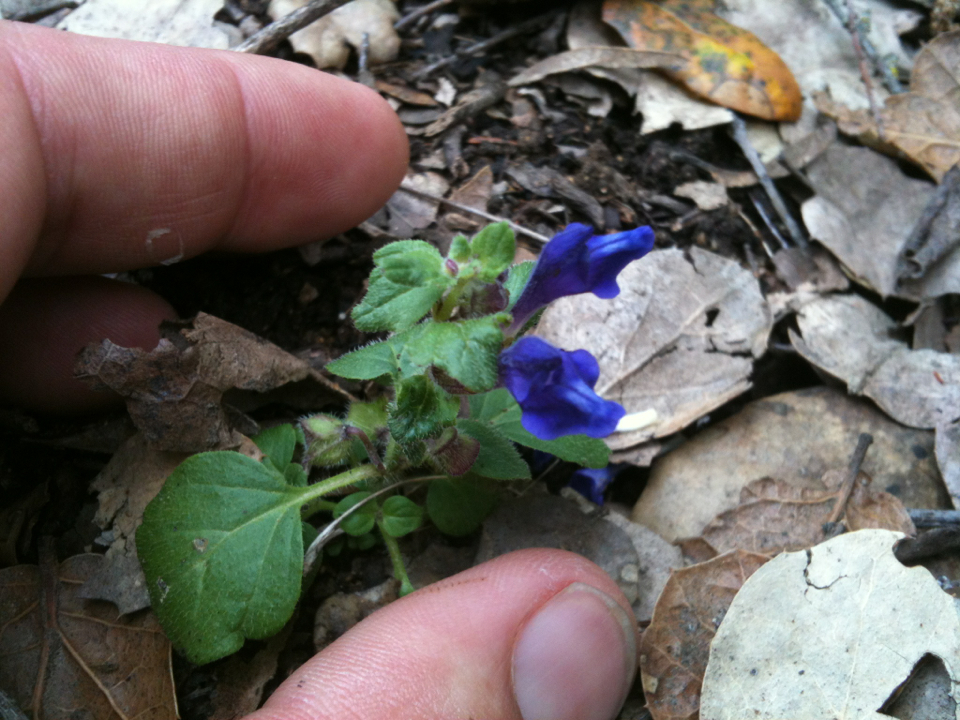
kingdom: Plantae
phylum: Tracheophyta
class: Magnoliopsida
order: Lamiales
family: Lamiaceae
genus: Scutellaria
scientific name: Scutellaria tuberosa
